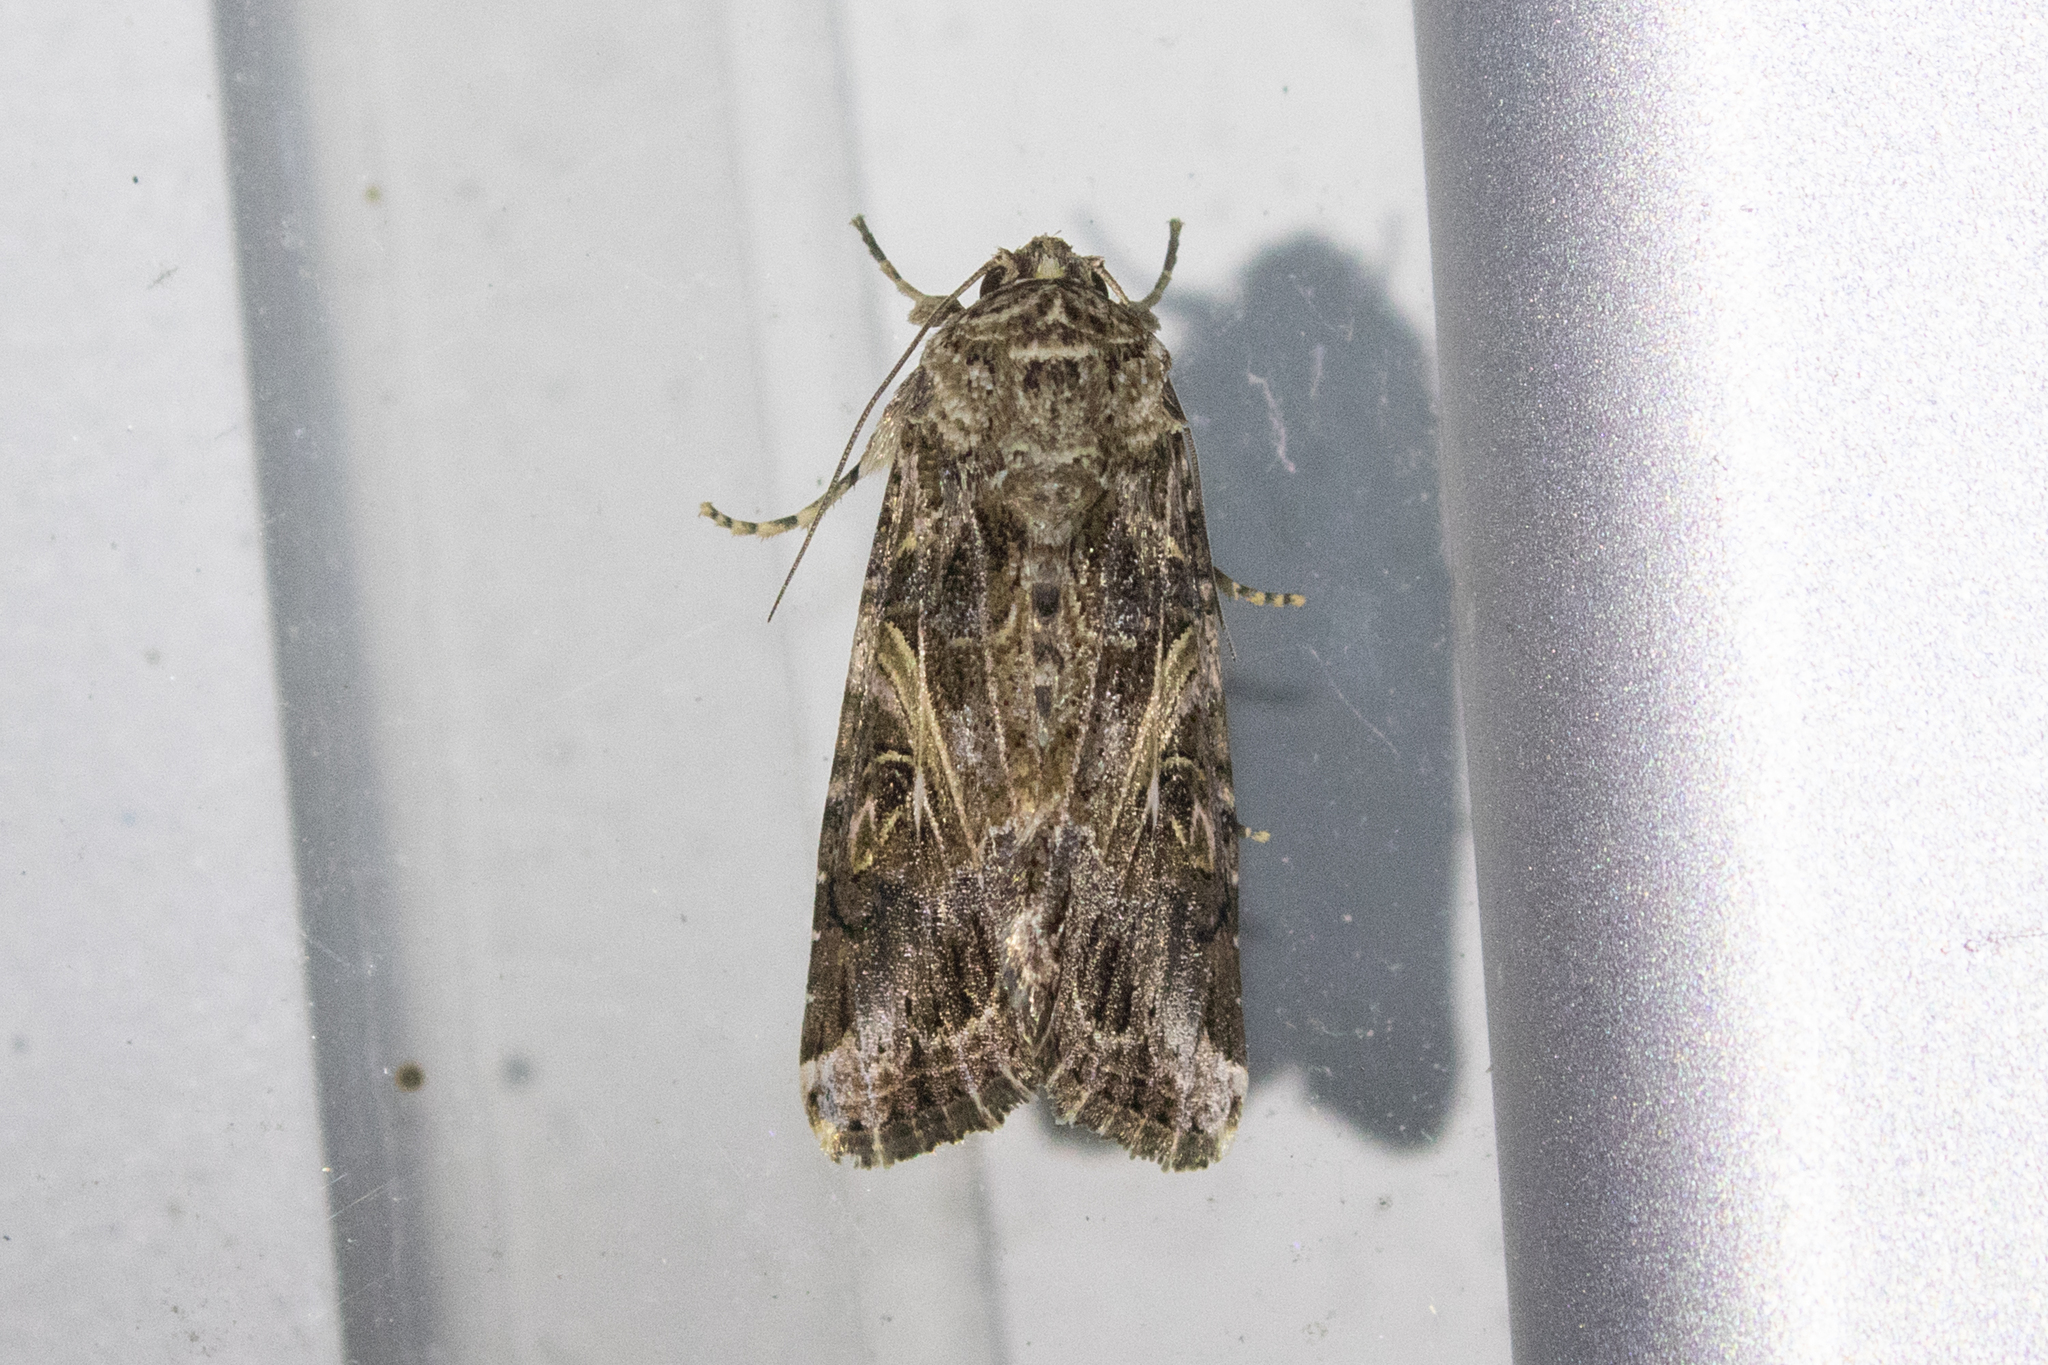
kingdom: Animalia
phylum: Arthropoda
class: Insecta
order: Lepidoptera
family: Noctuidae
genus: Spodoptera
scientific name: Spodoptera ornithogalli
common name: Yellow-striped armyworm
